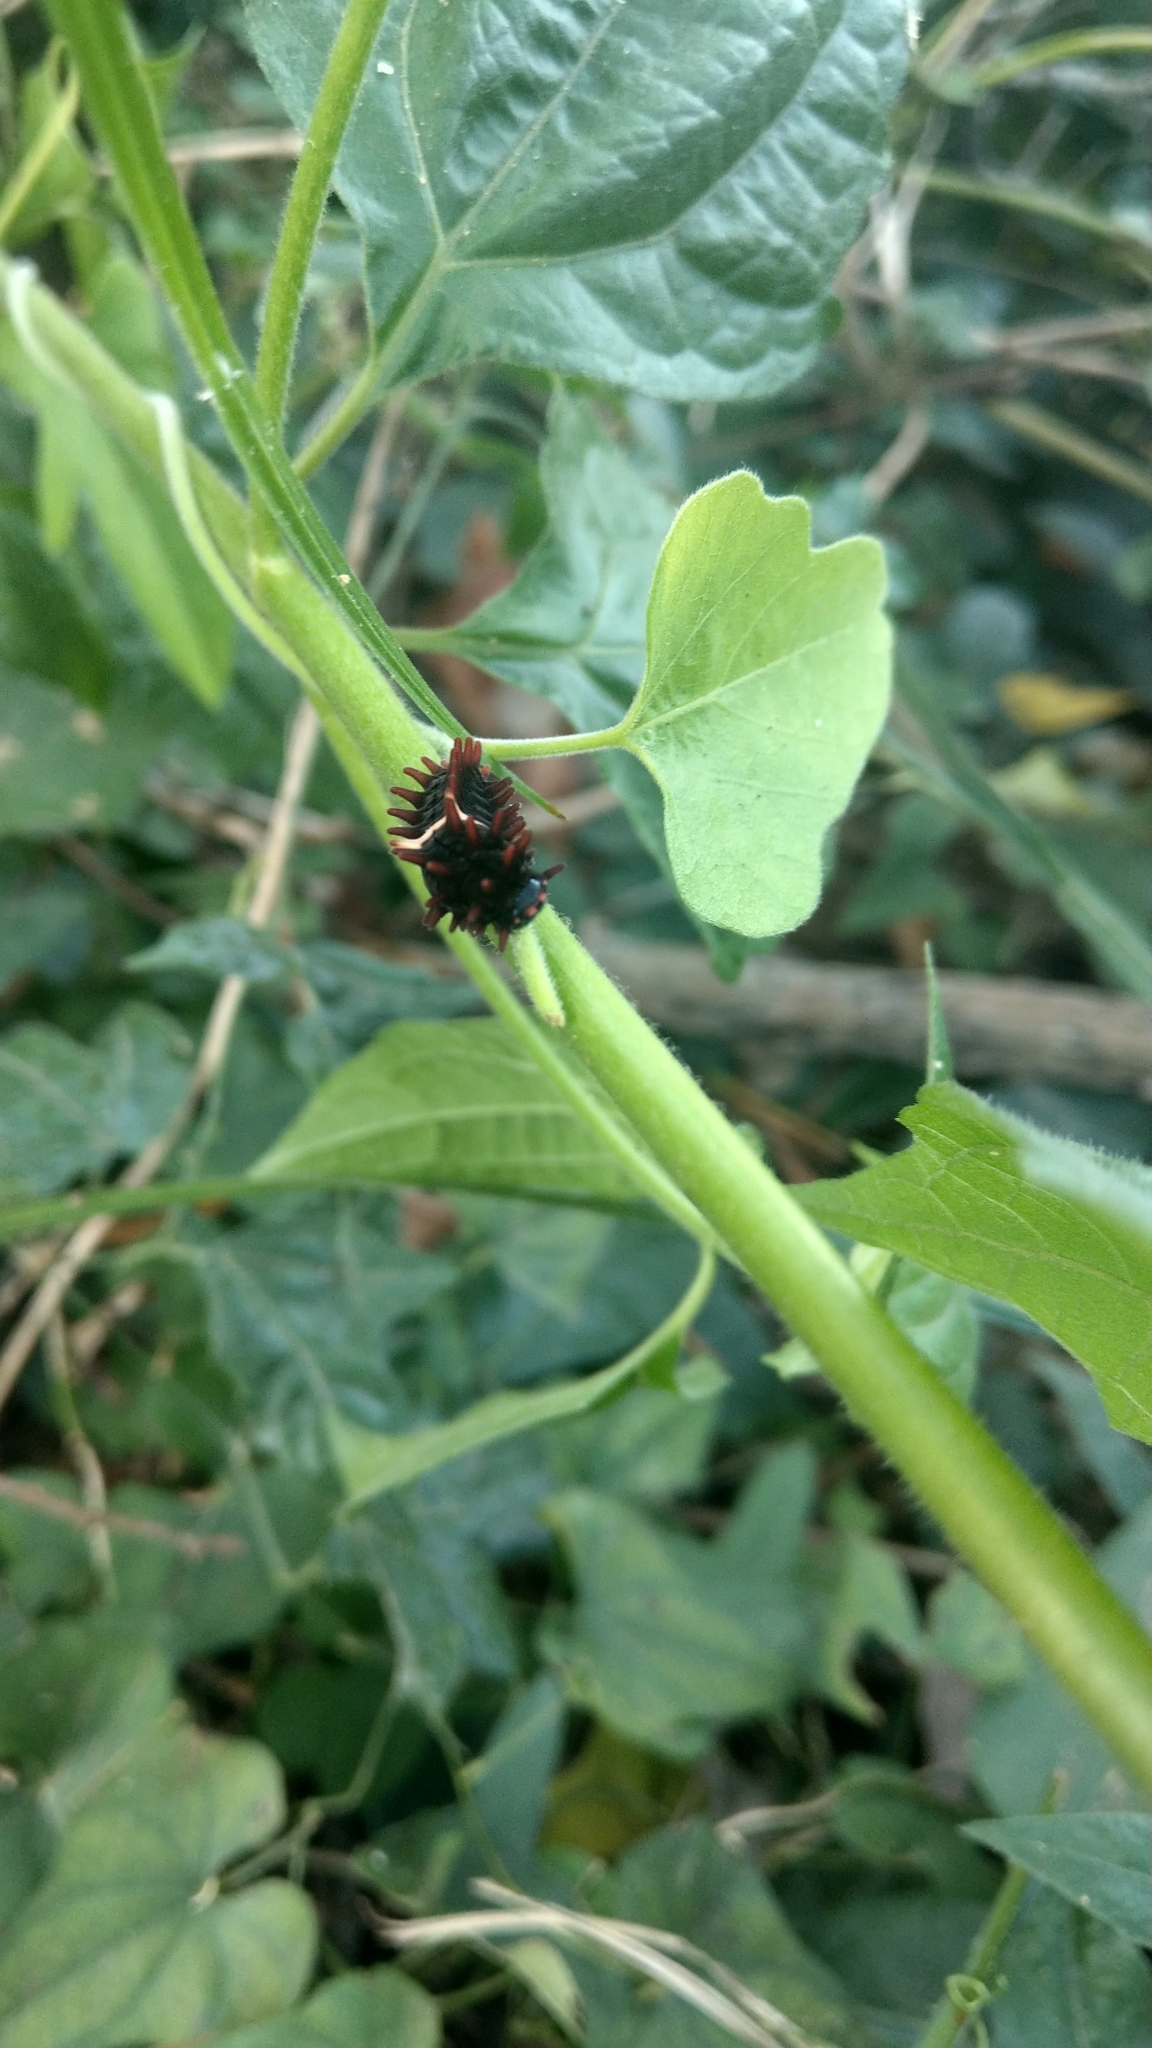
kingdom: Animalia
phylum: Arthropoda
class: Insecta
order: Lepidoptera
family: Papilionidae
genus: Pachliopta
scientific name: Pachliopta aristolochiae
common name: Common rose
